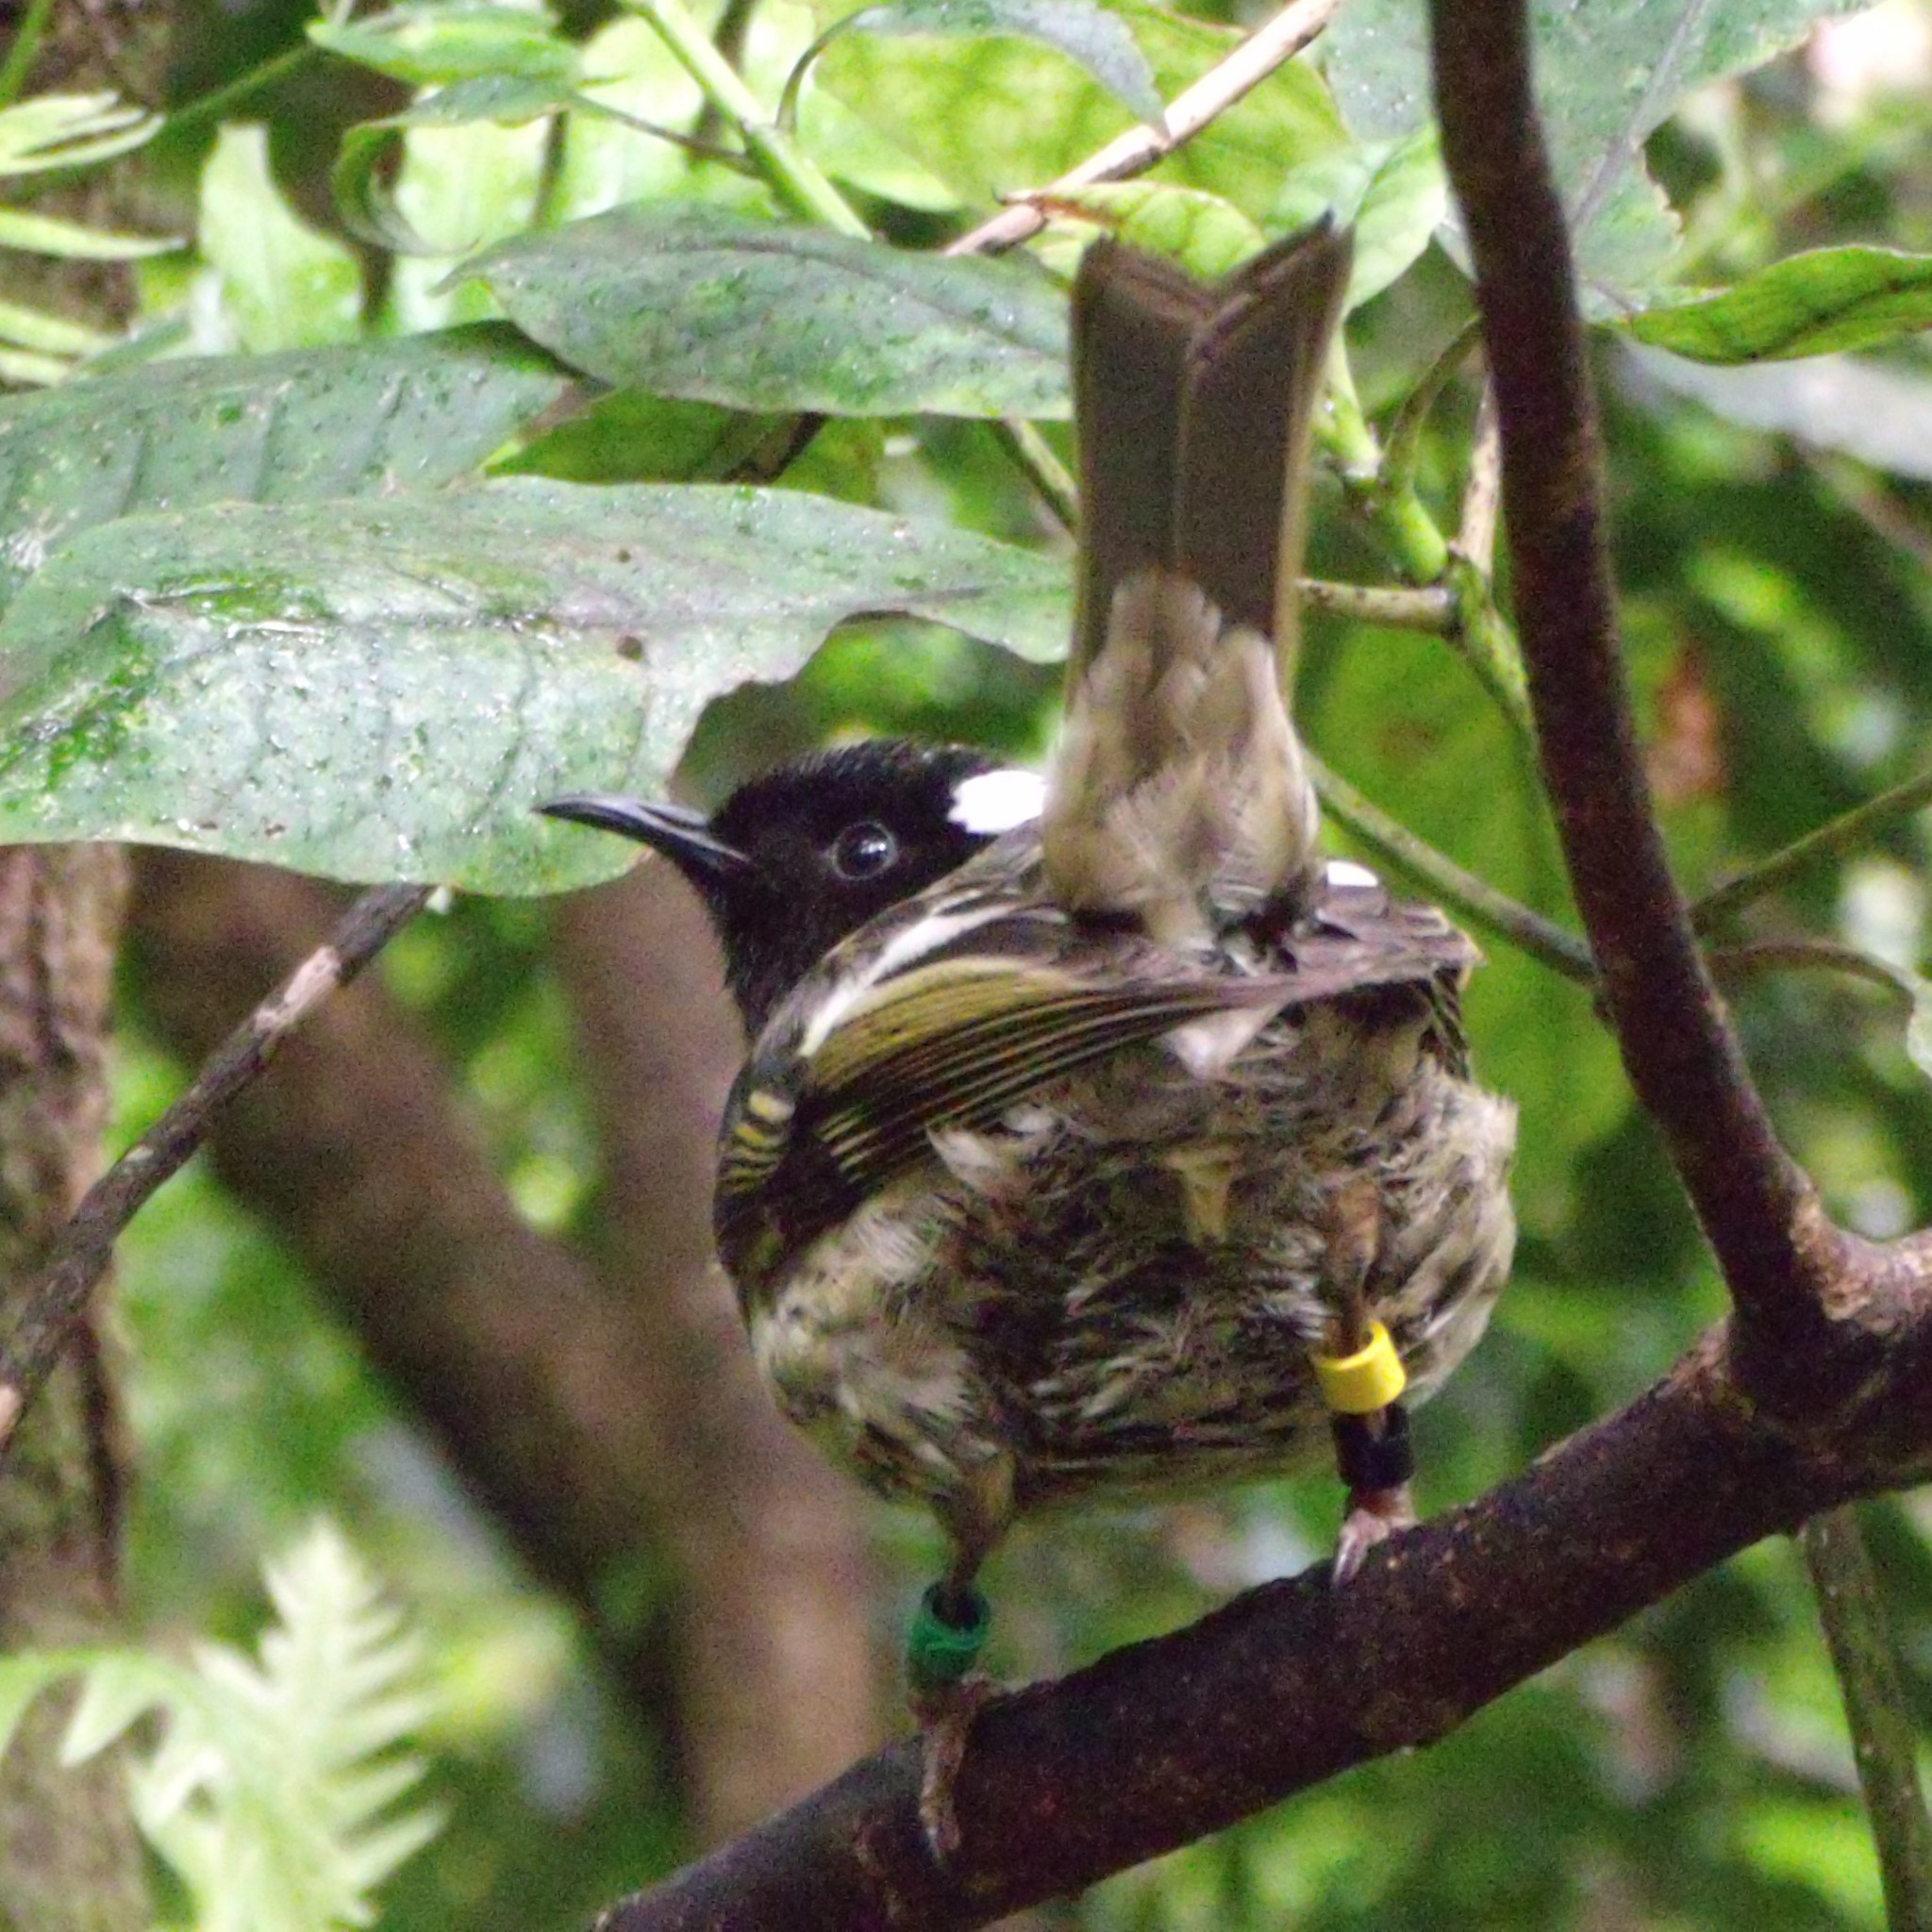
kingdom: Animalia
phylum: Chordata
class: Aves
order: Passeriformes
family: Notiomystidae
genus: Notiomystis
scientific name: Notiomystis cincta
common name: Stitchbird
